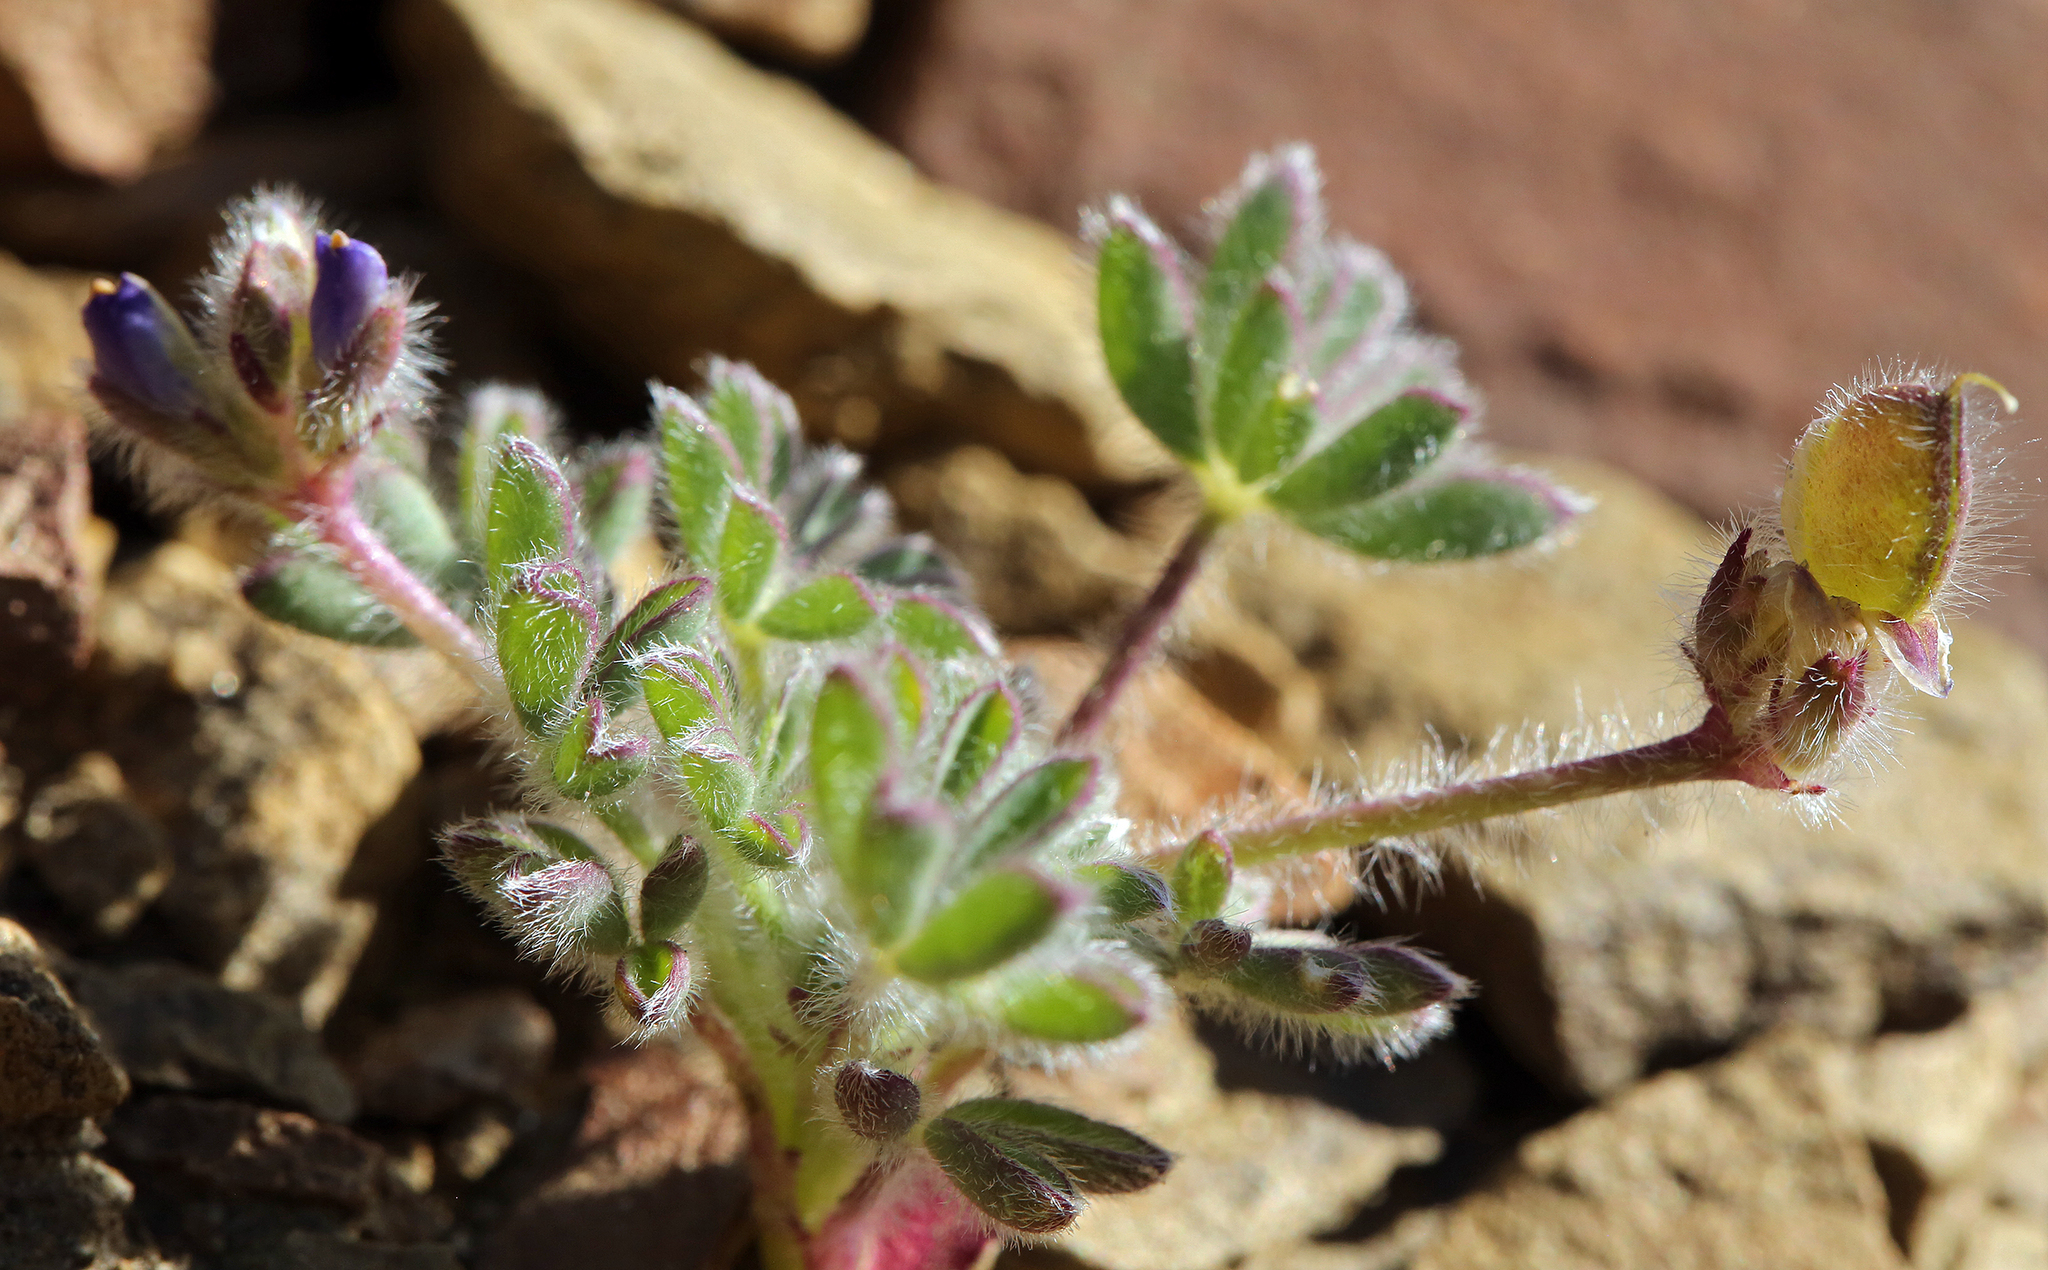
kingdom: Plantae
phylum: Tracheophyta
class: Magnoliopsida
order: Fabales
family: Fabaceae
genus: Lupinus
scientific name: Lupinus brevicaulis
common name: Sand lupine
